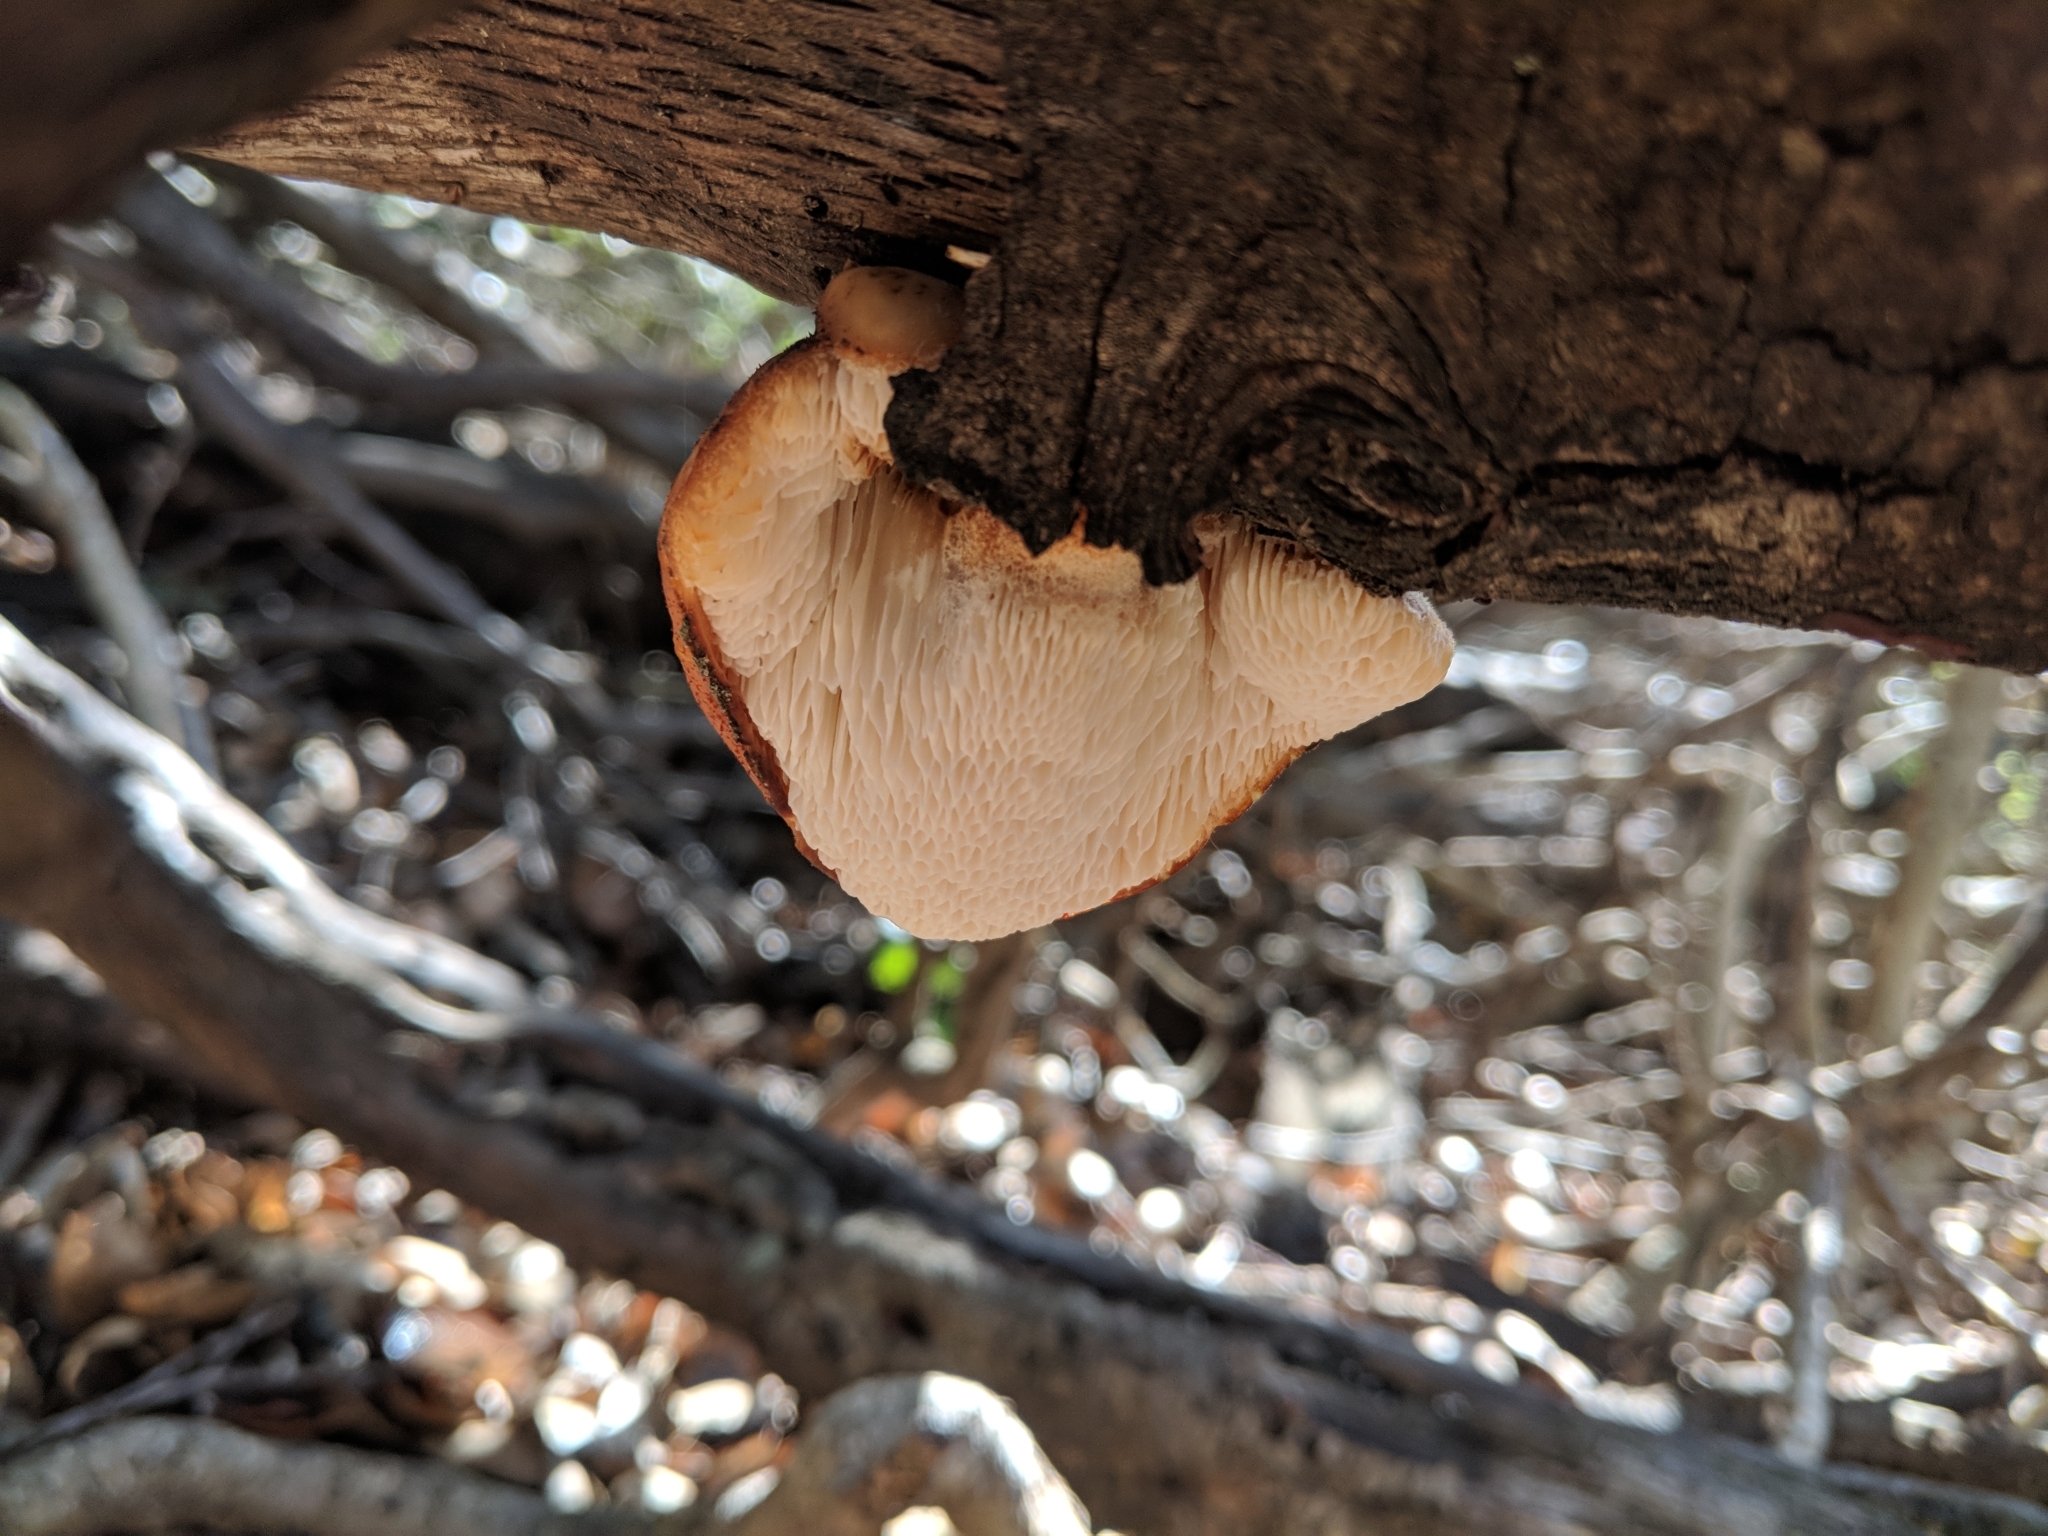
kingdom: Fungi
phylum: Basidiomycota
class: Agaricomycetes
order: Polyporales
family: Fomitopsidaceae
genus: Fomitopsis
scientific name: Fomitopsis
